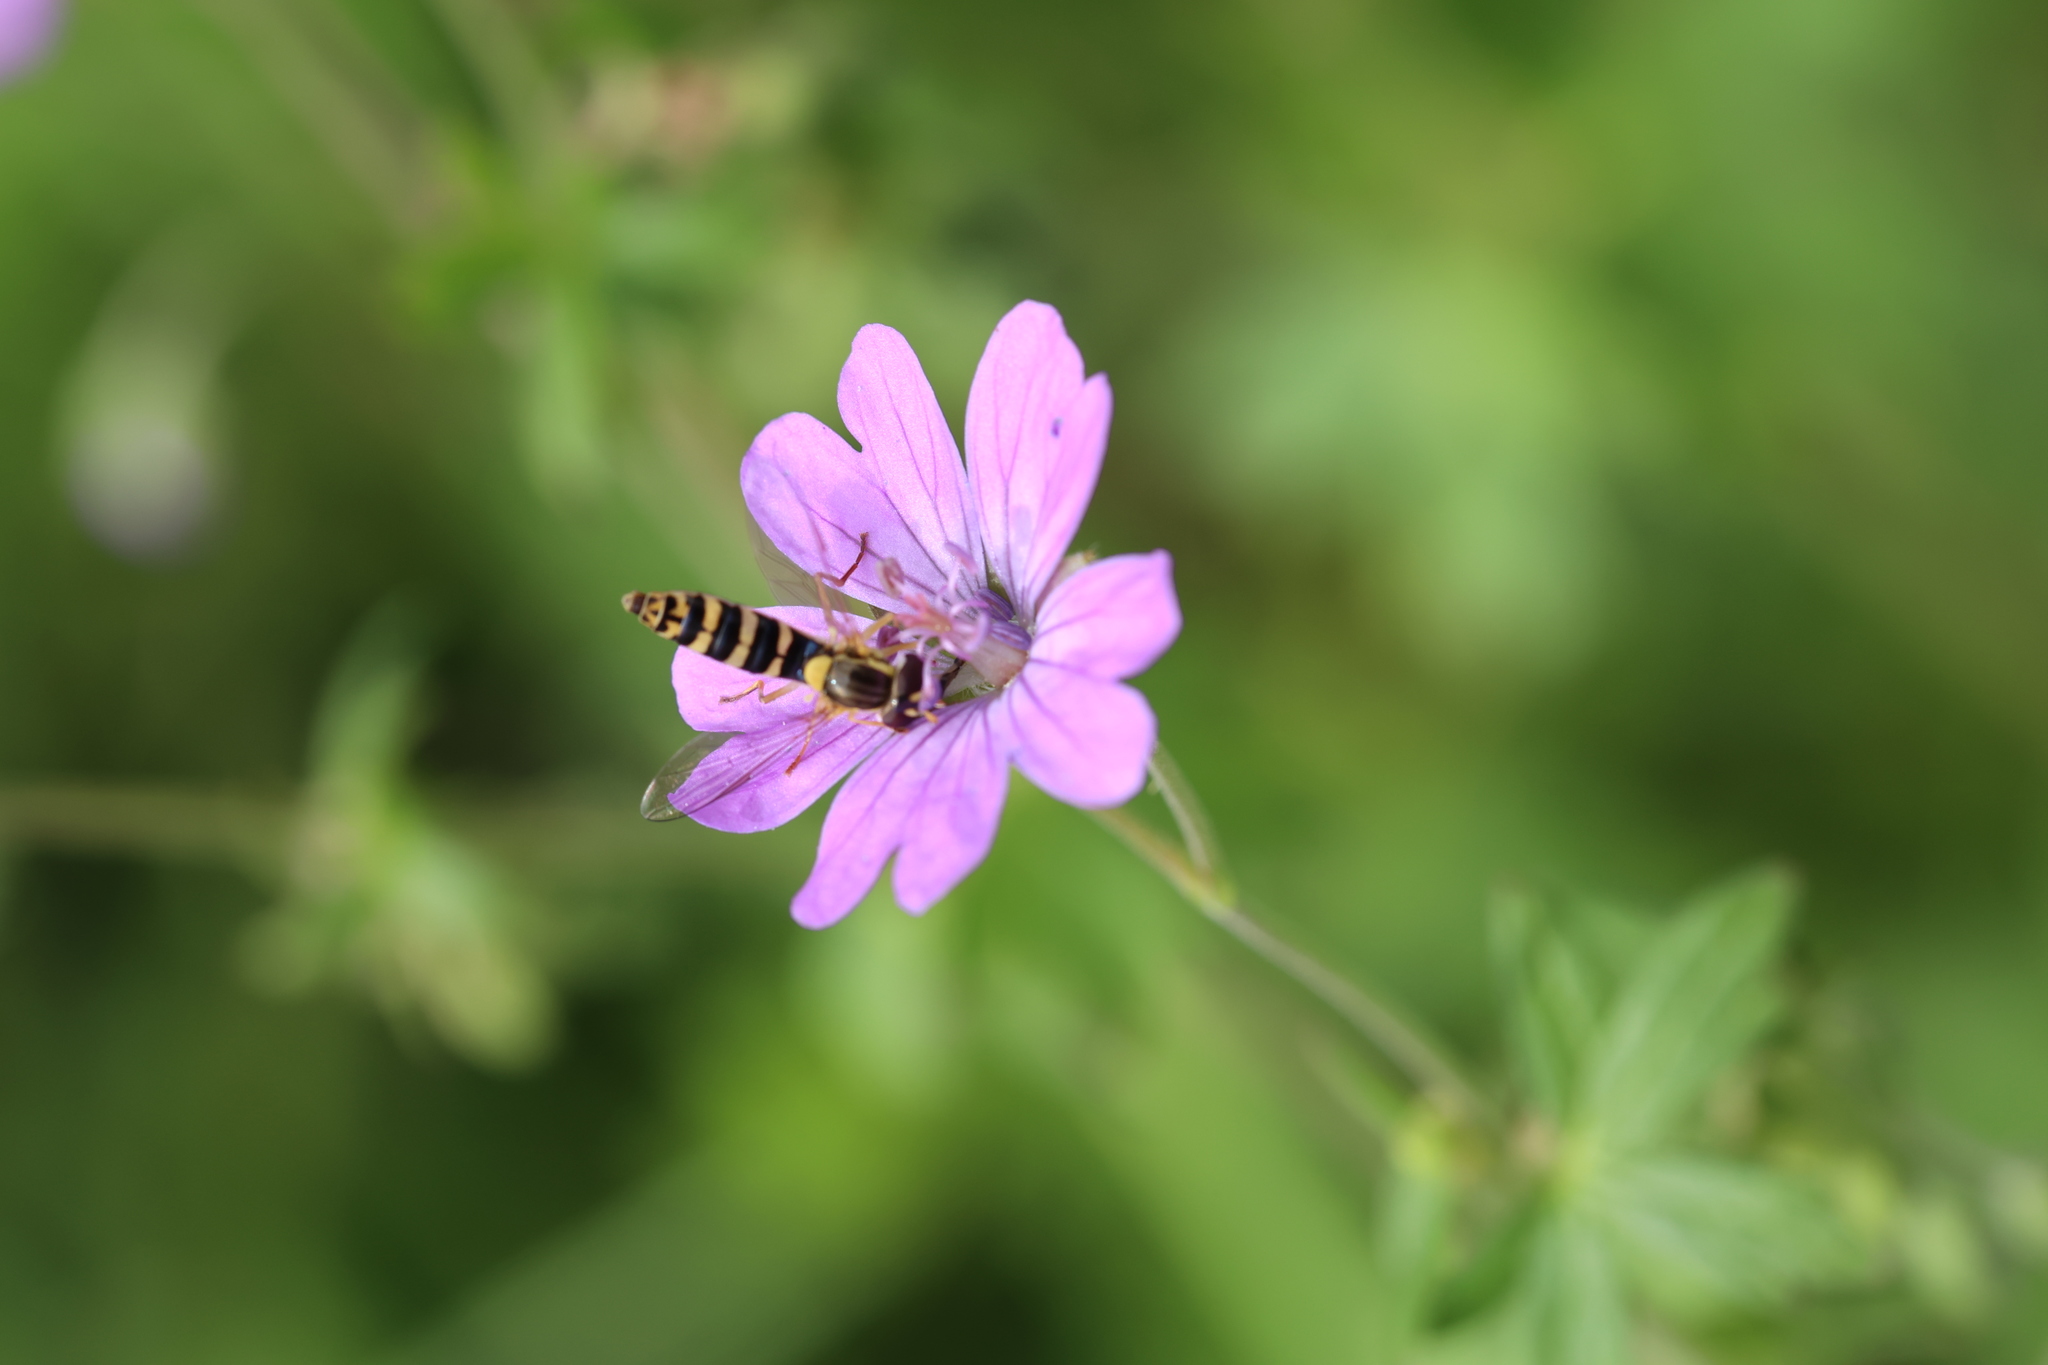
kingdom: Animalia
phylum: Arthropoda
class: Insecta
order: Diptera
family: Syrphidae
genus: Sphaerophoria
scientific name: Sphaerophoria
